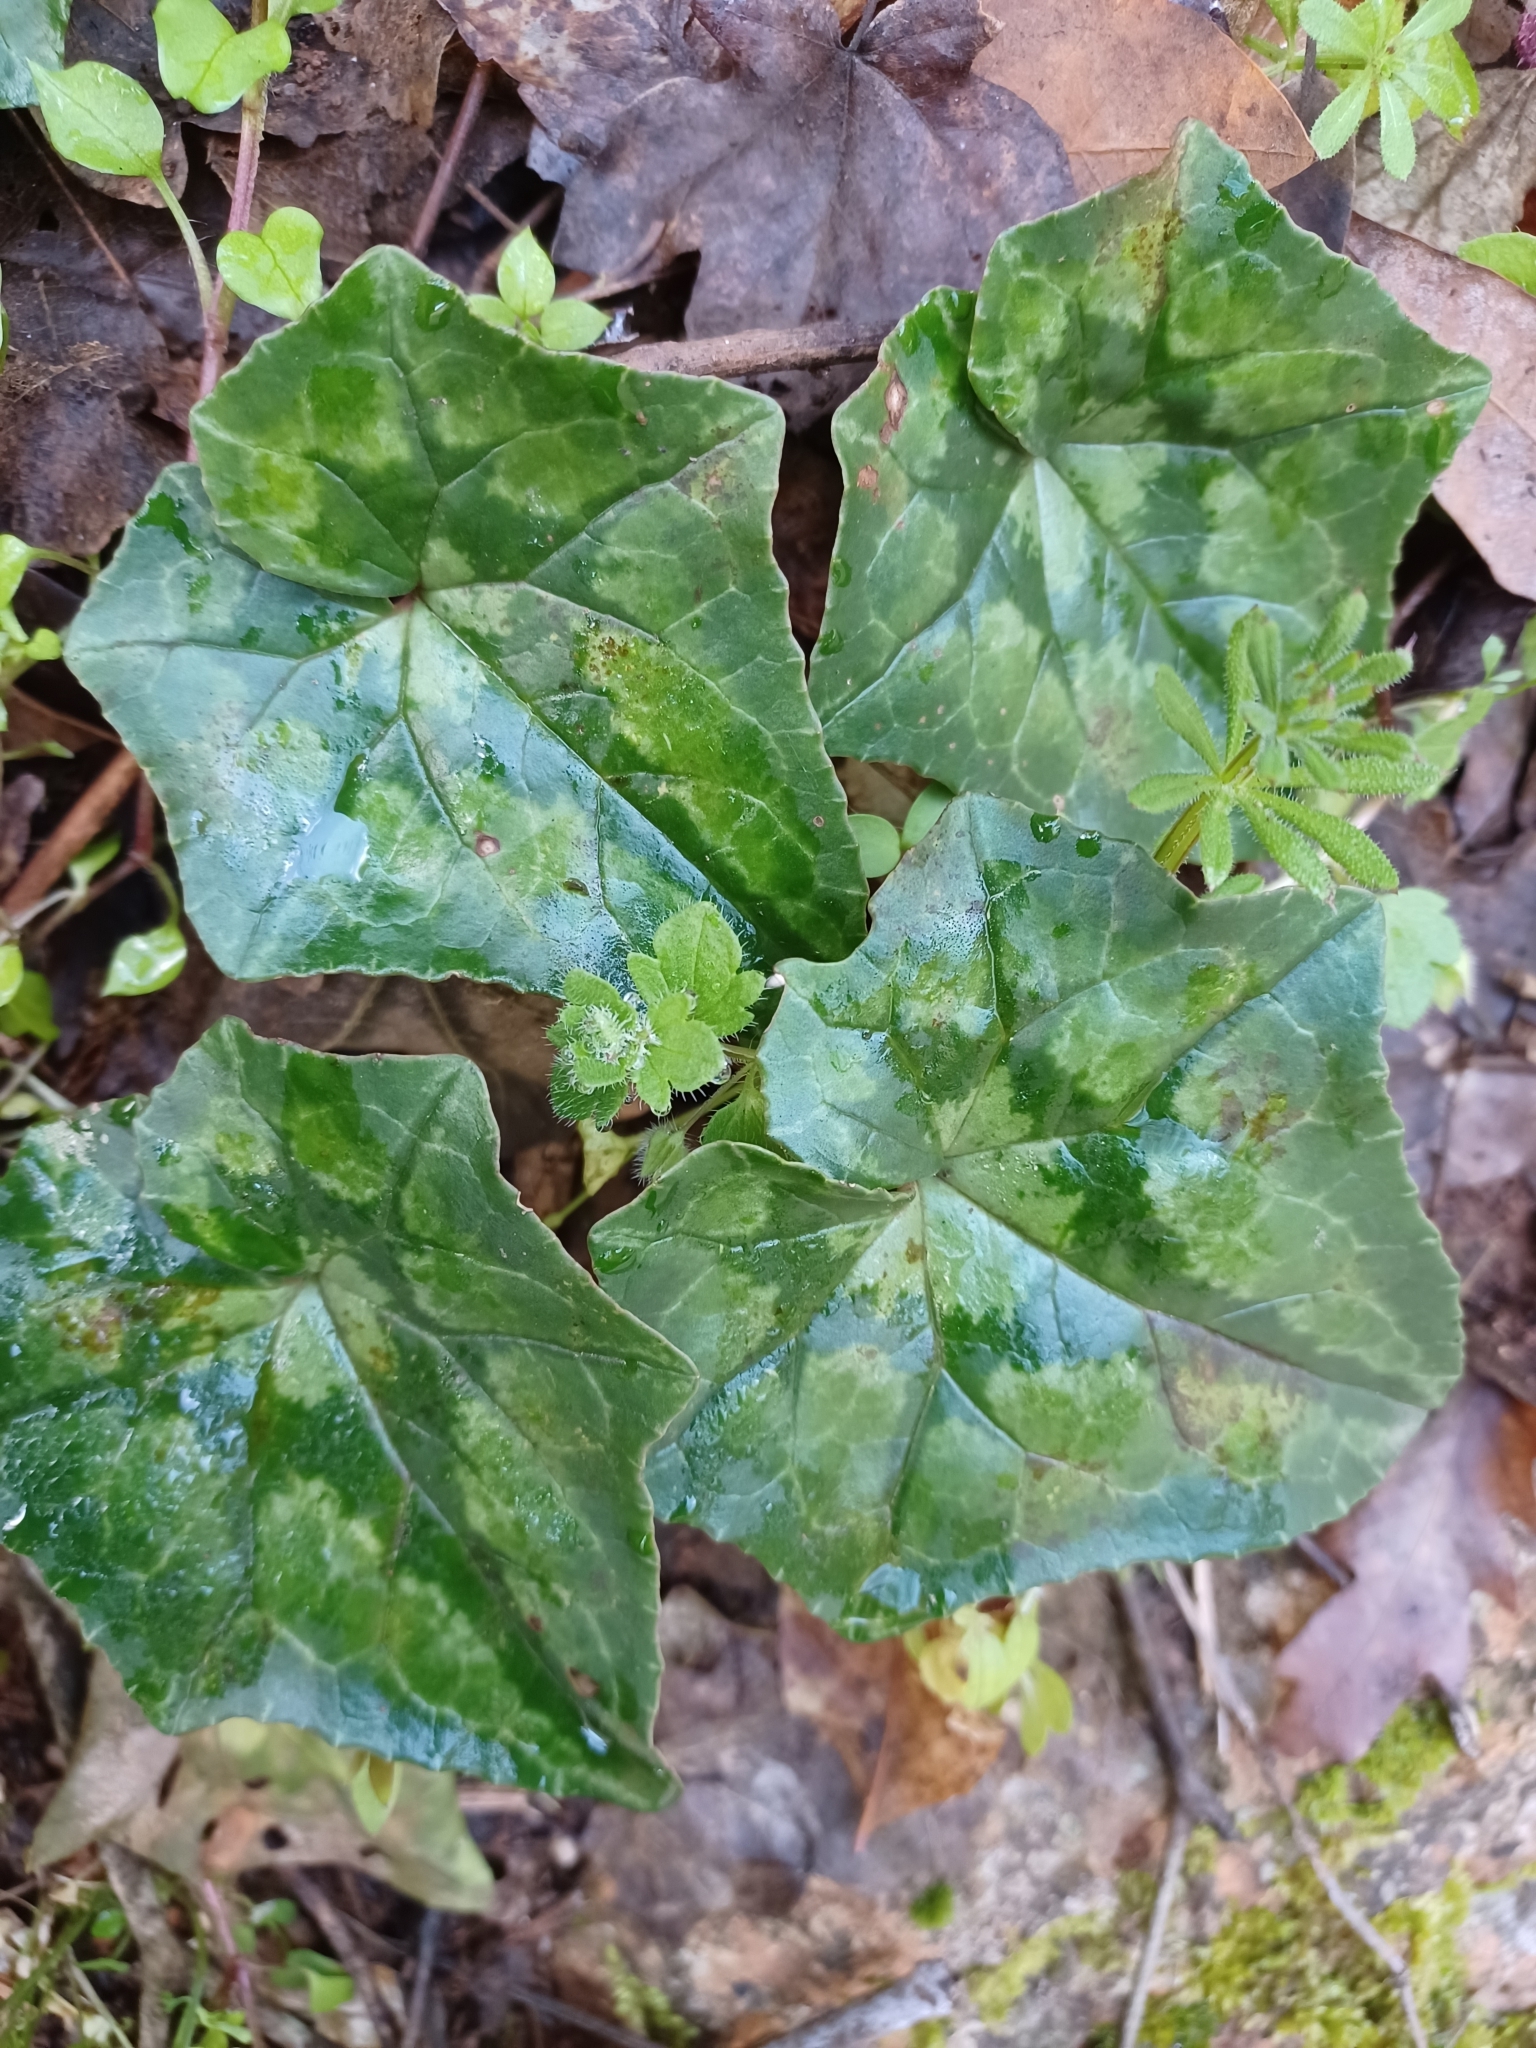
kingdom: Plantae
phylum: Tracheophyta
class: Magnoliopsida
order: Ericales
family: Primulaceae
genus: Cyclamen
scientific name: Cyclamen hederifolium
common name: Sowbread
